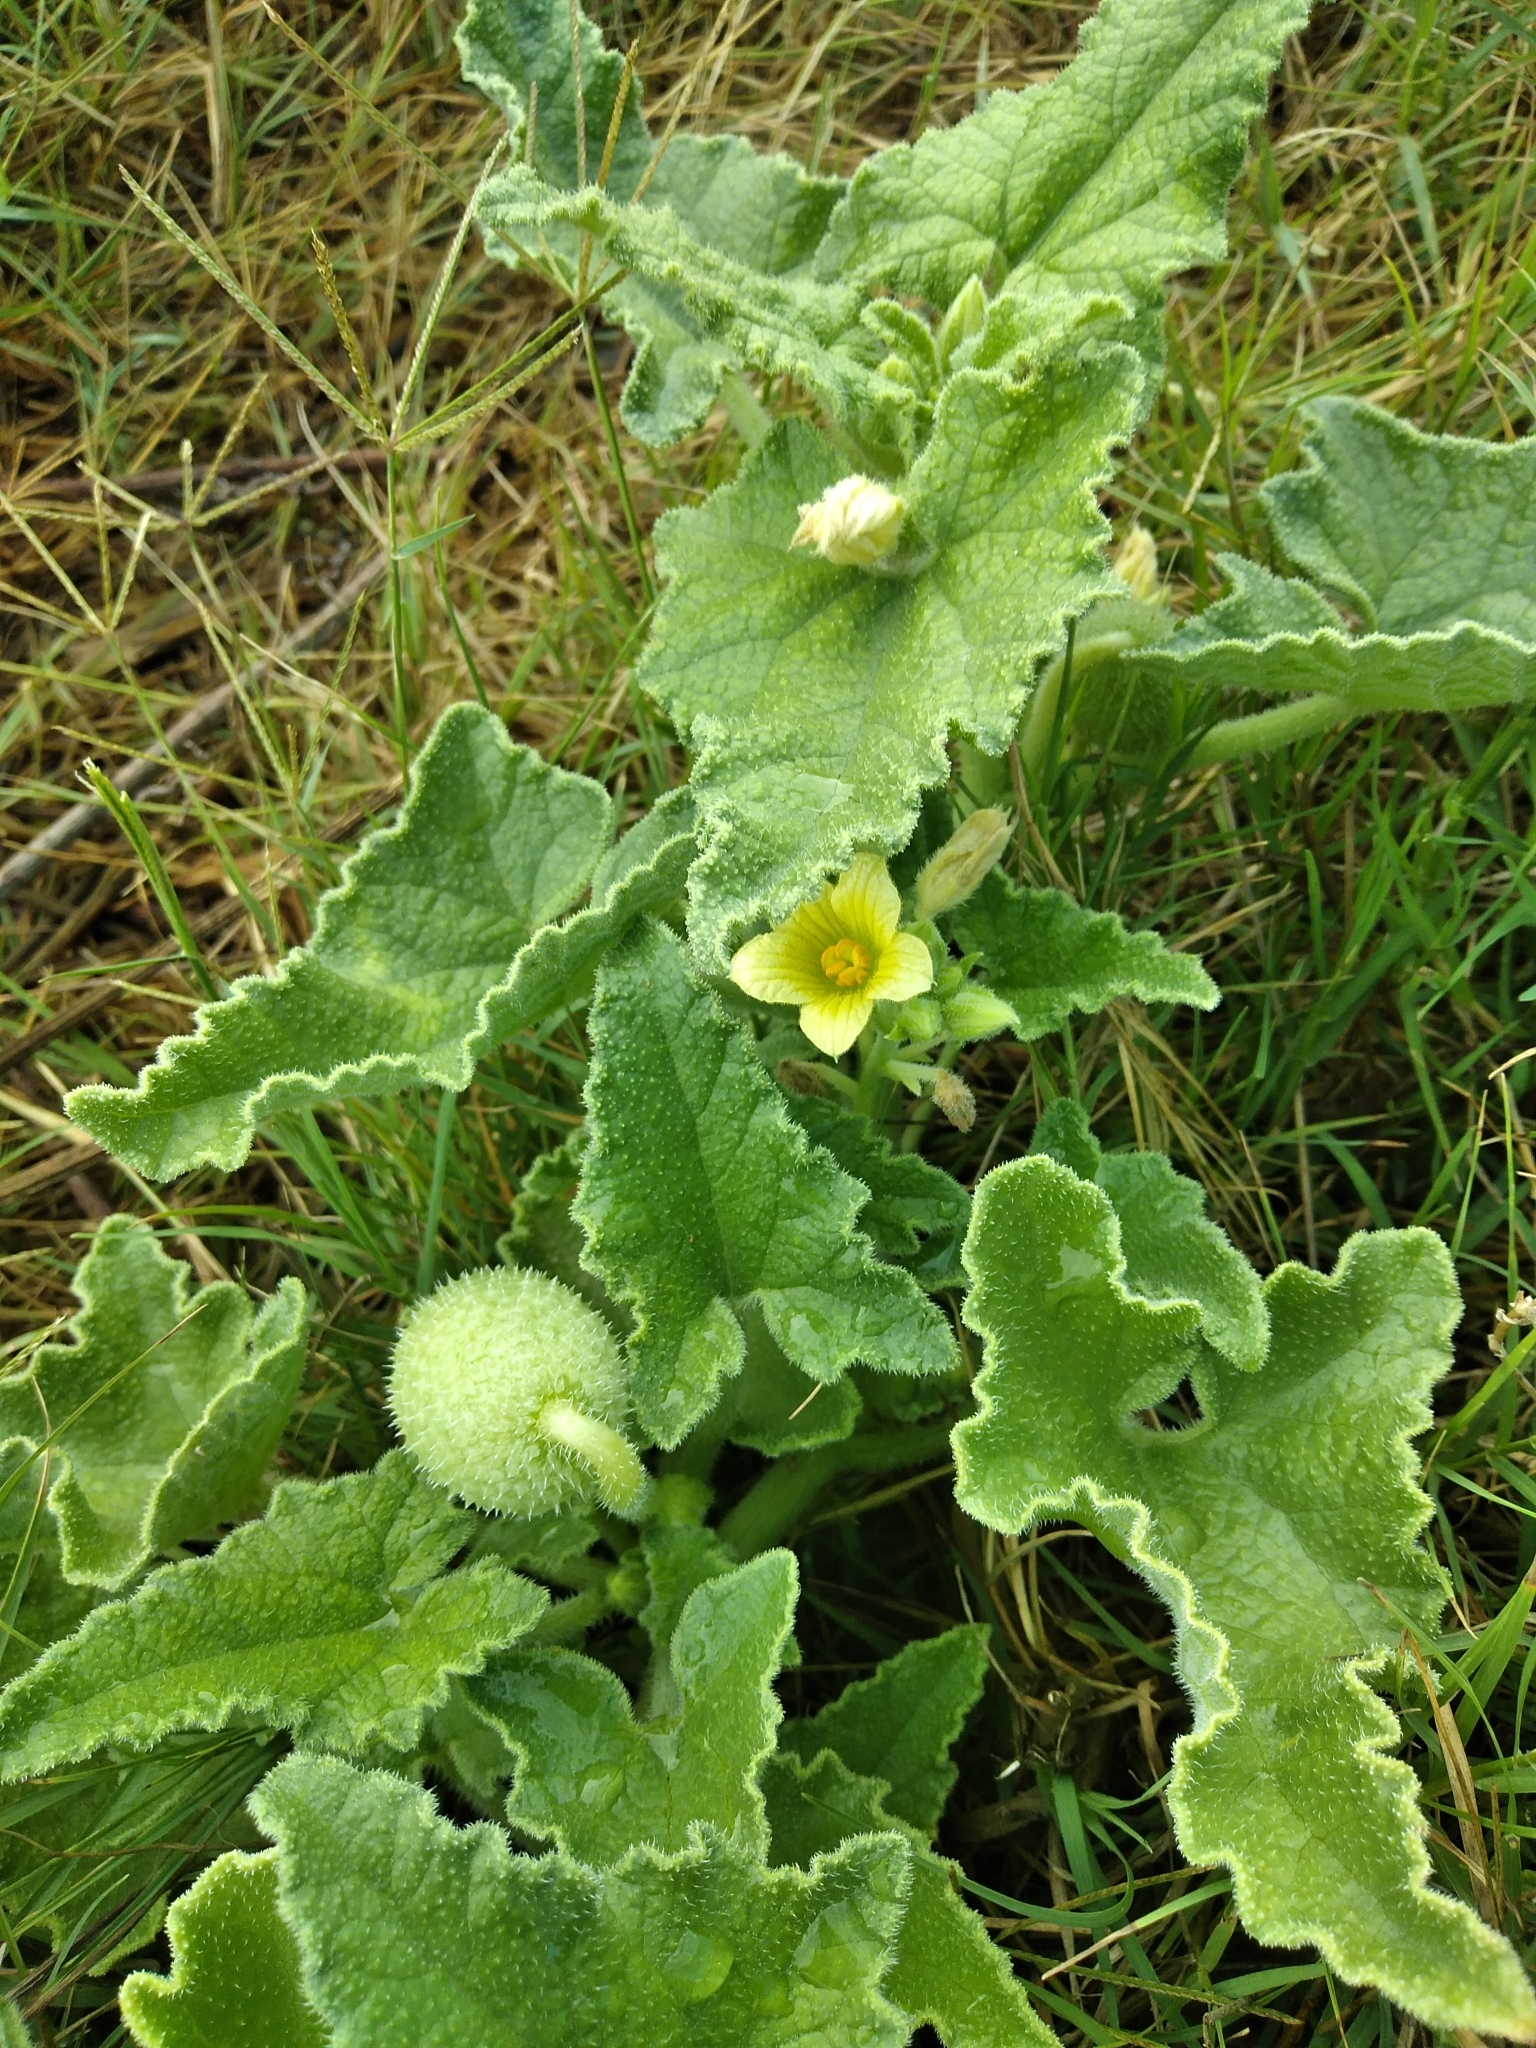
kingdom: Plantae
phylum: Tracheophyta
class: Magnoliopsida
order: Cucurbitales
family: Cucurbitaceae
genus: Ecballium
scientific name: Ecballium elaterium
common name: Squirting cucumber
